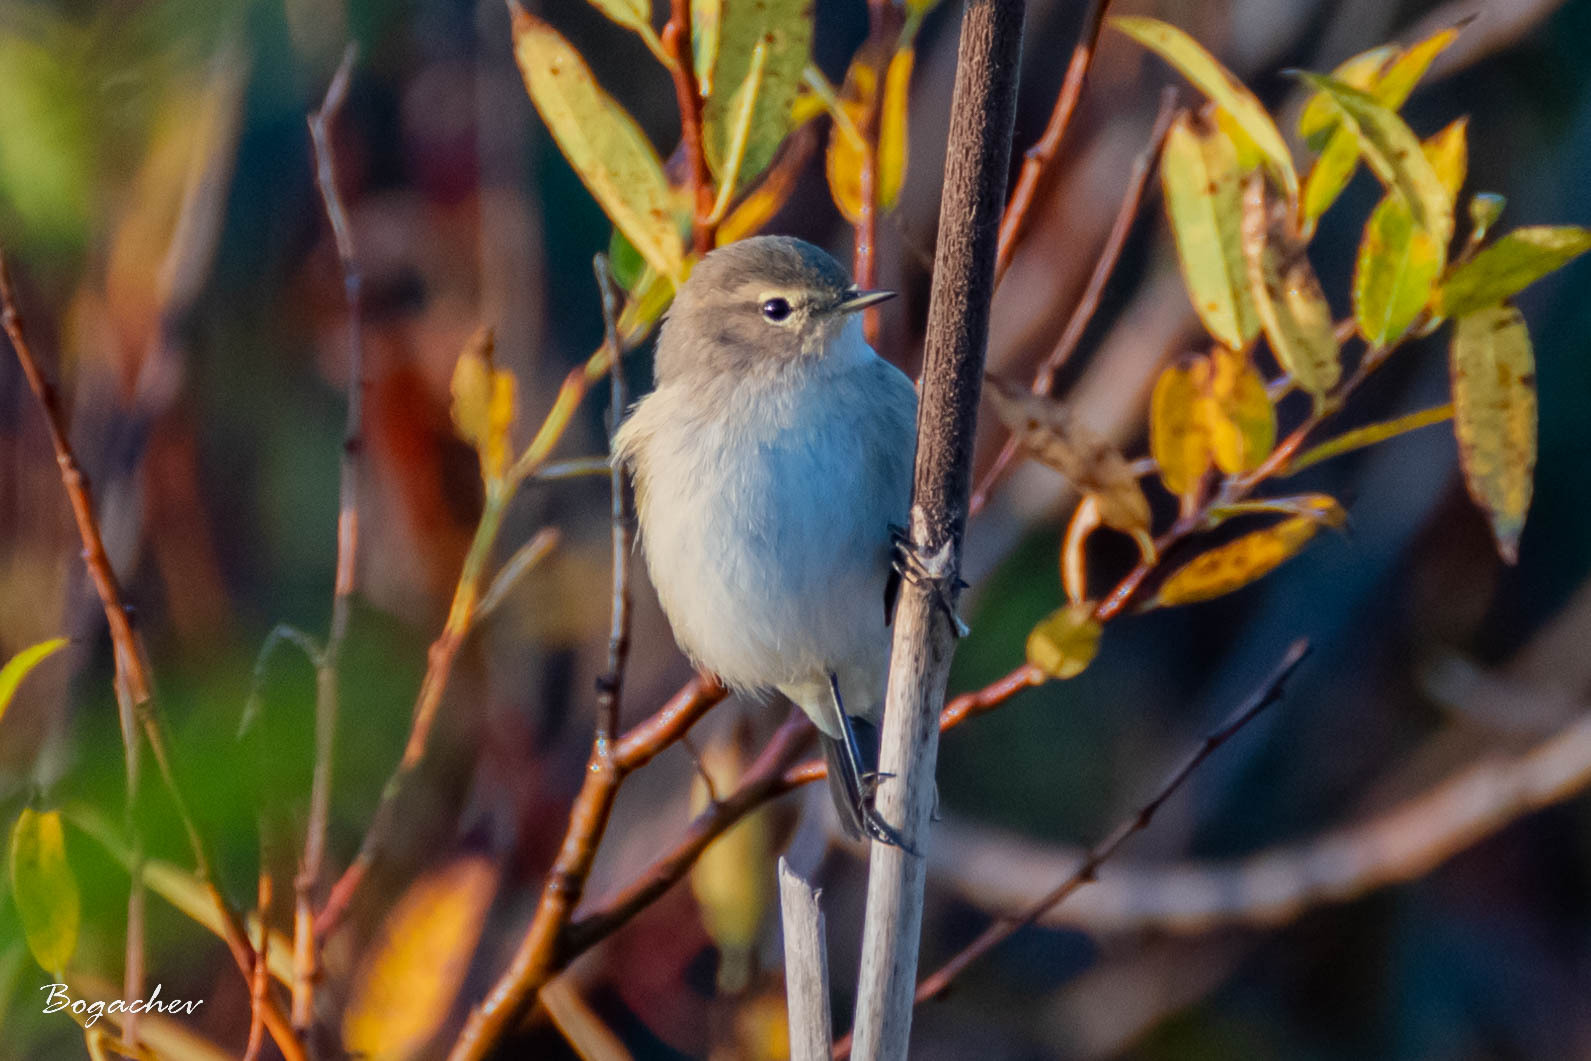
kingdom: Animalia
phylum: Chordata
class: Aves
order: Passeriformes
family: Phylloscopidae
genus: Phylloscopus
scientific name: Phylloscopus collybita
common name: Common chiffchaff
